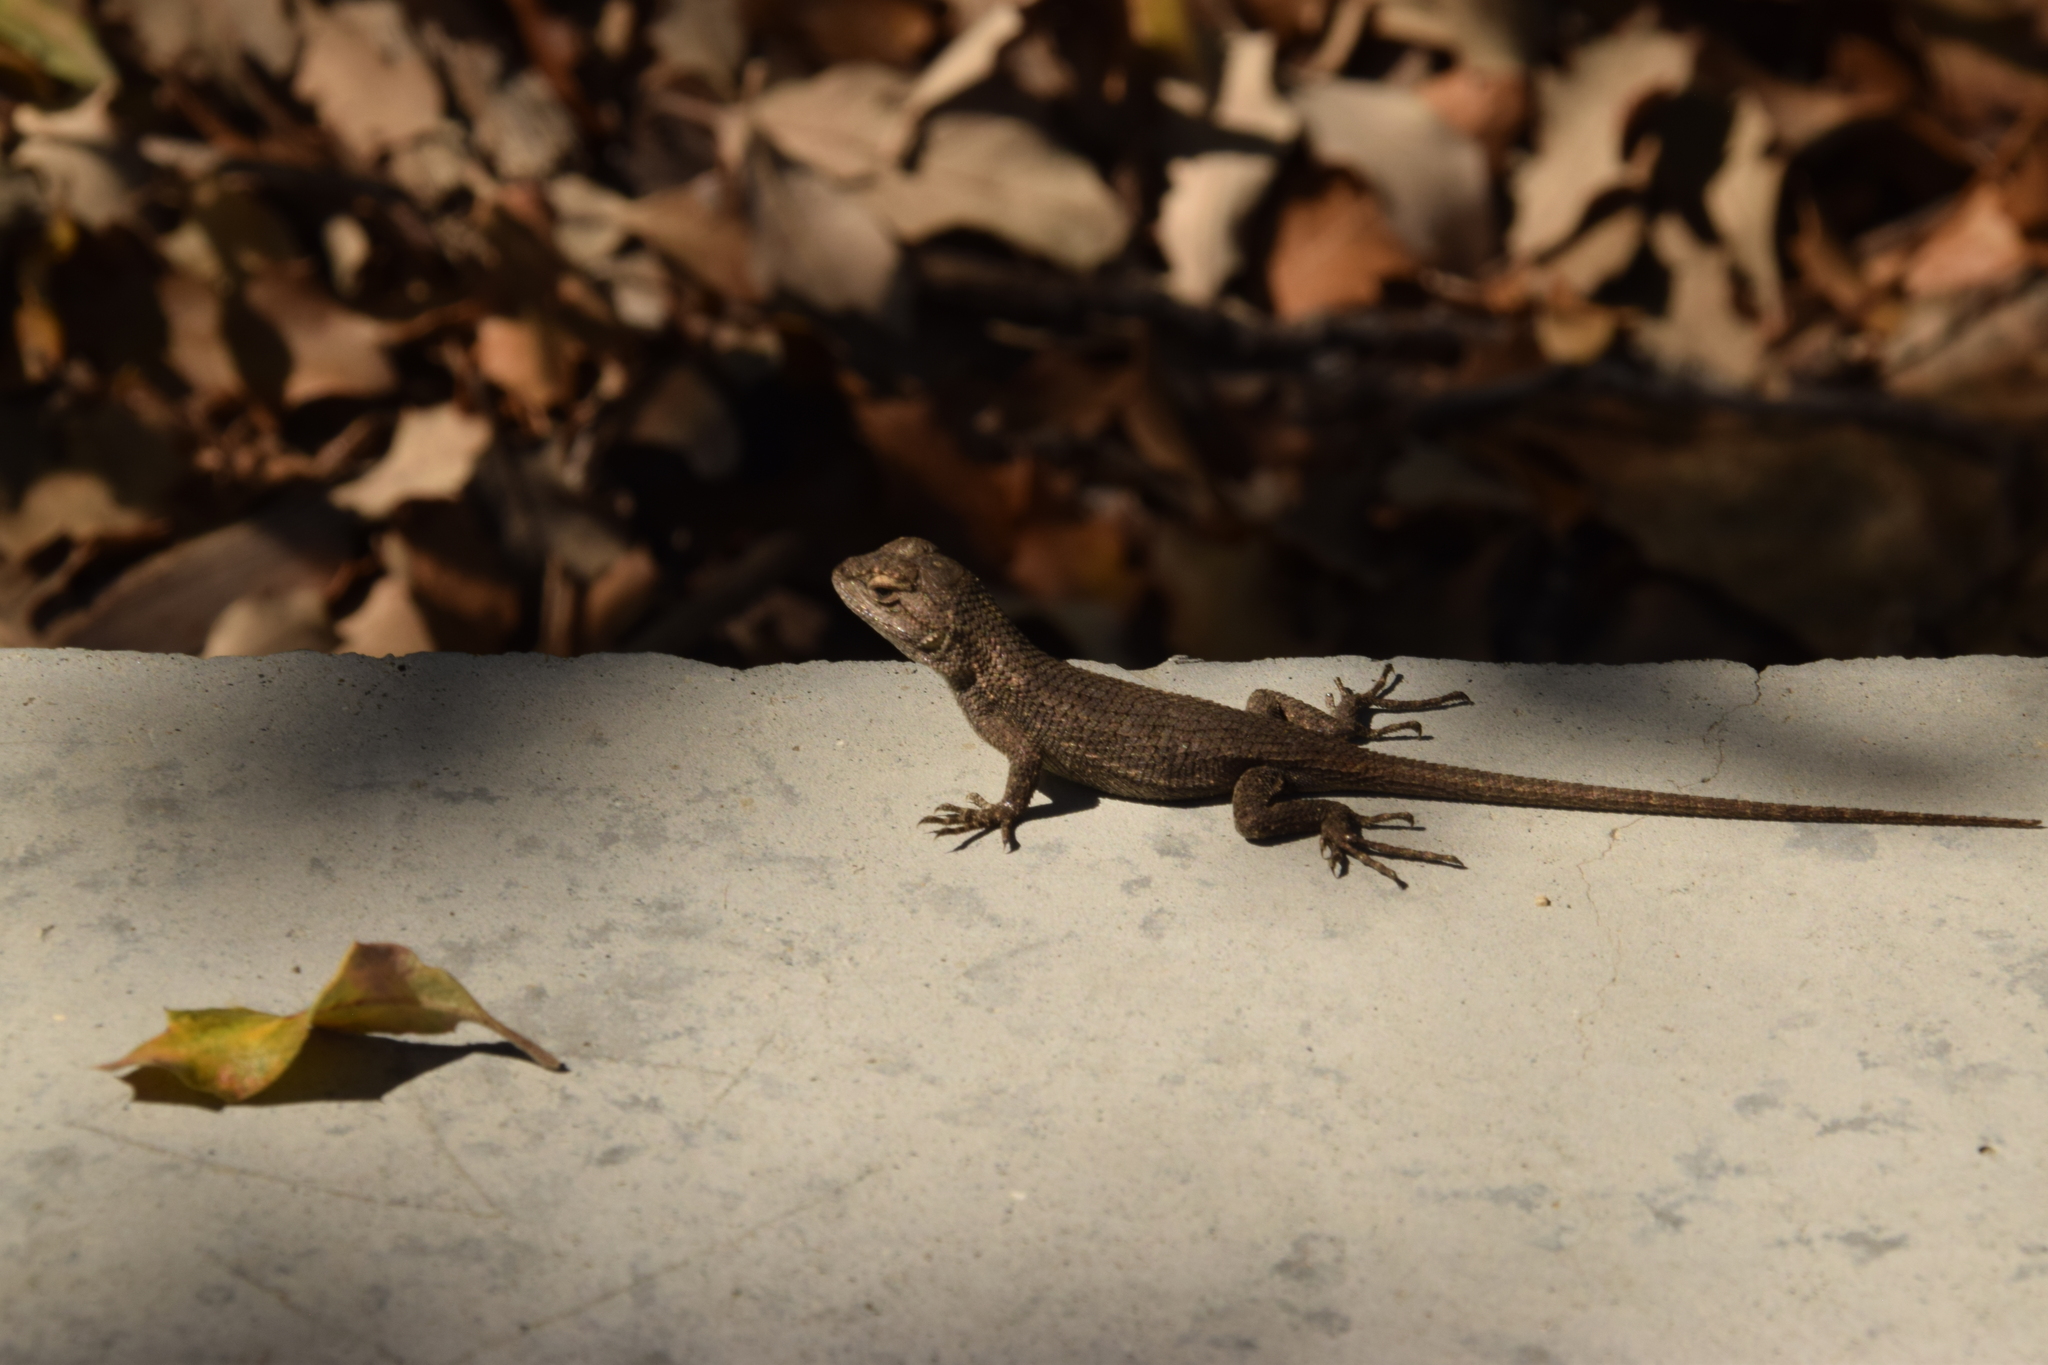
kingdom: Animalia
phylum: Chordata
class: Squamata
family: Phrynosomatidae
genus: Sceloporus
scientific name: Sceloporus occidentalis
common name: Western fence lizard
